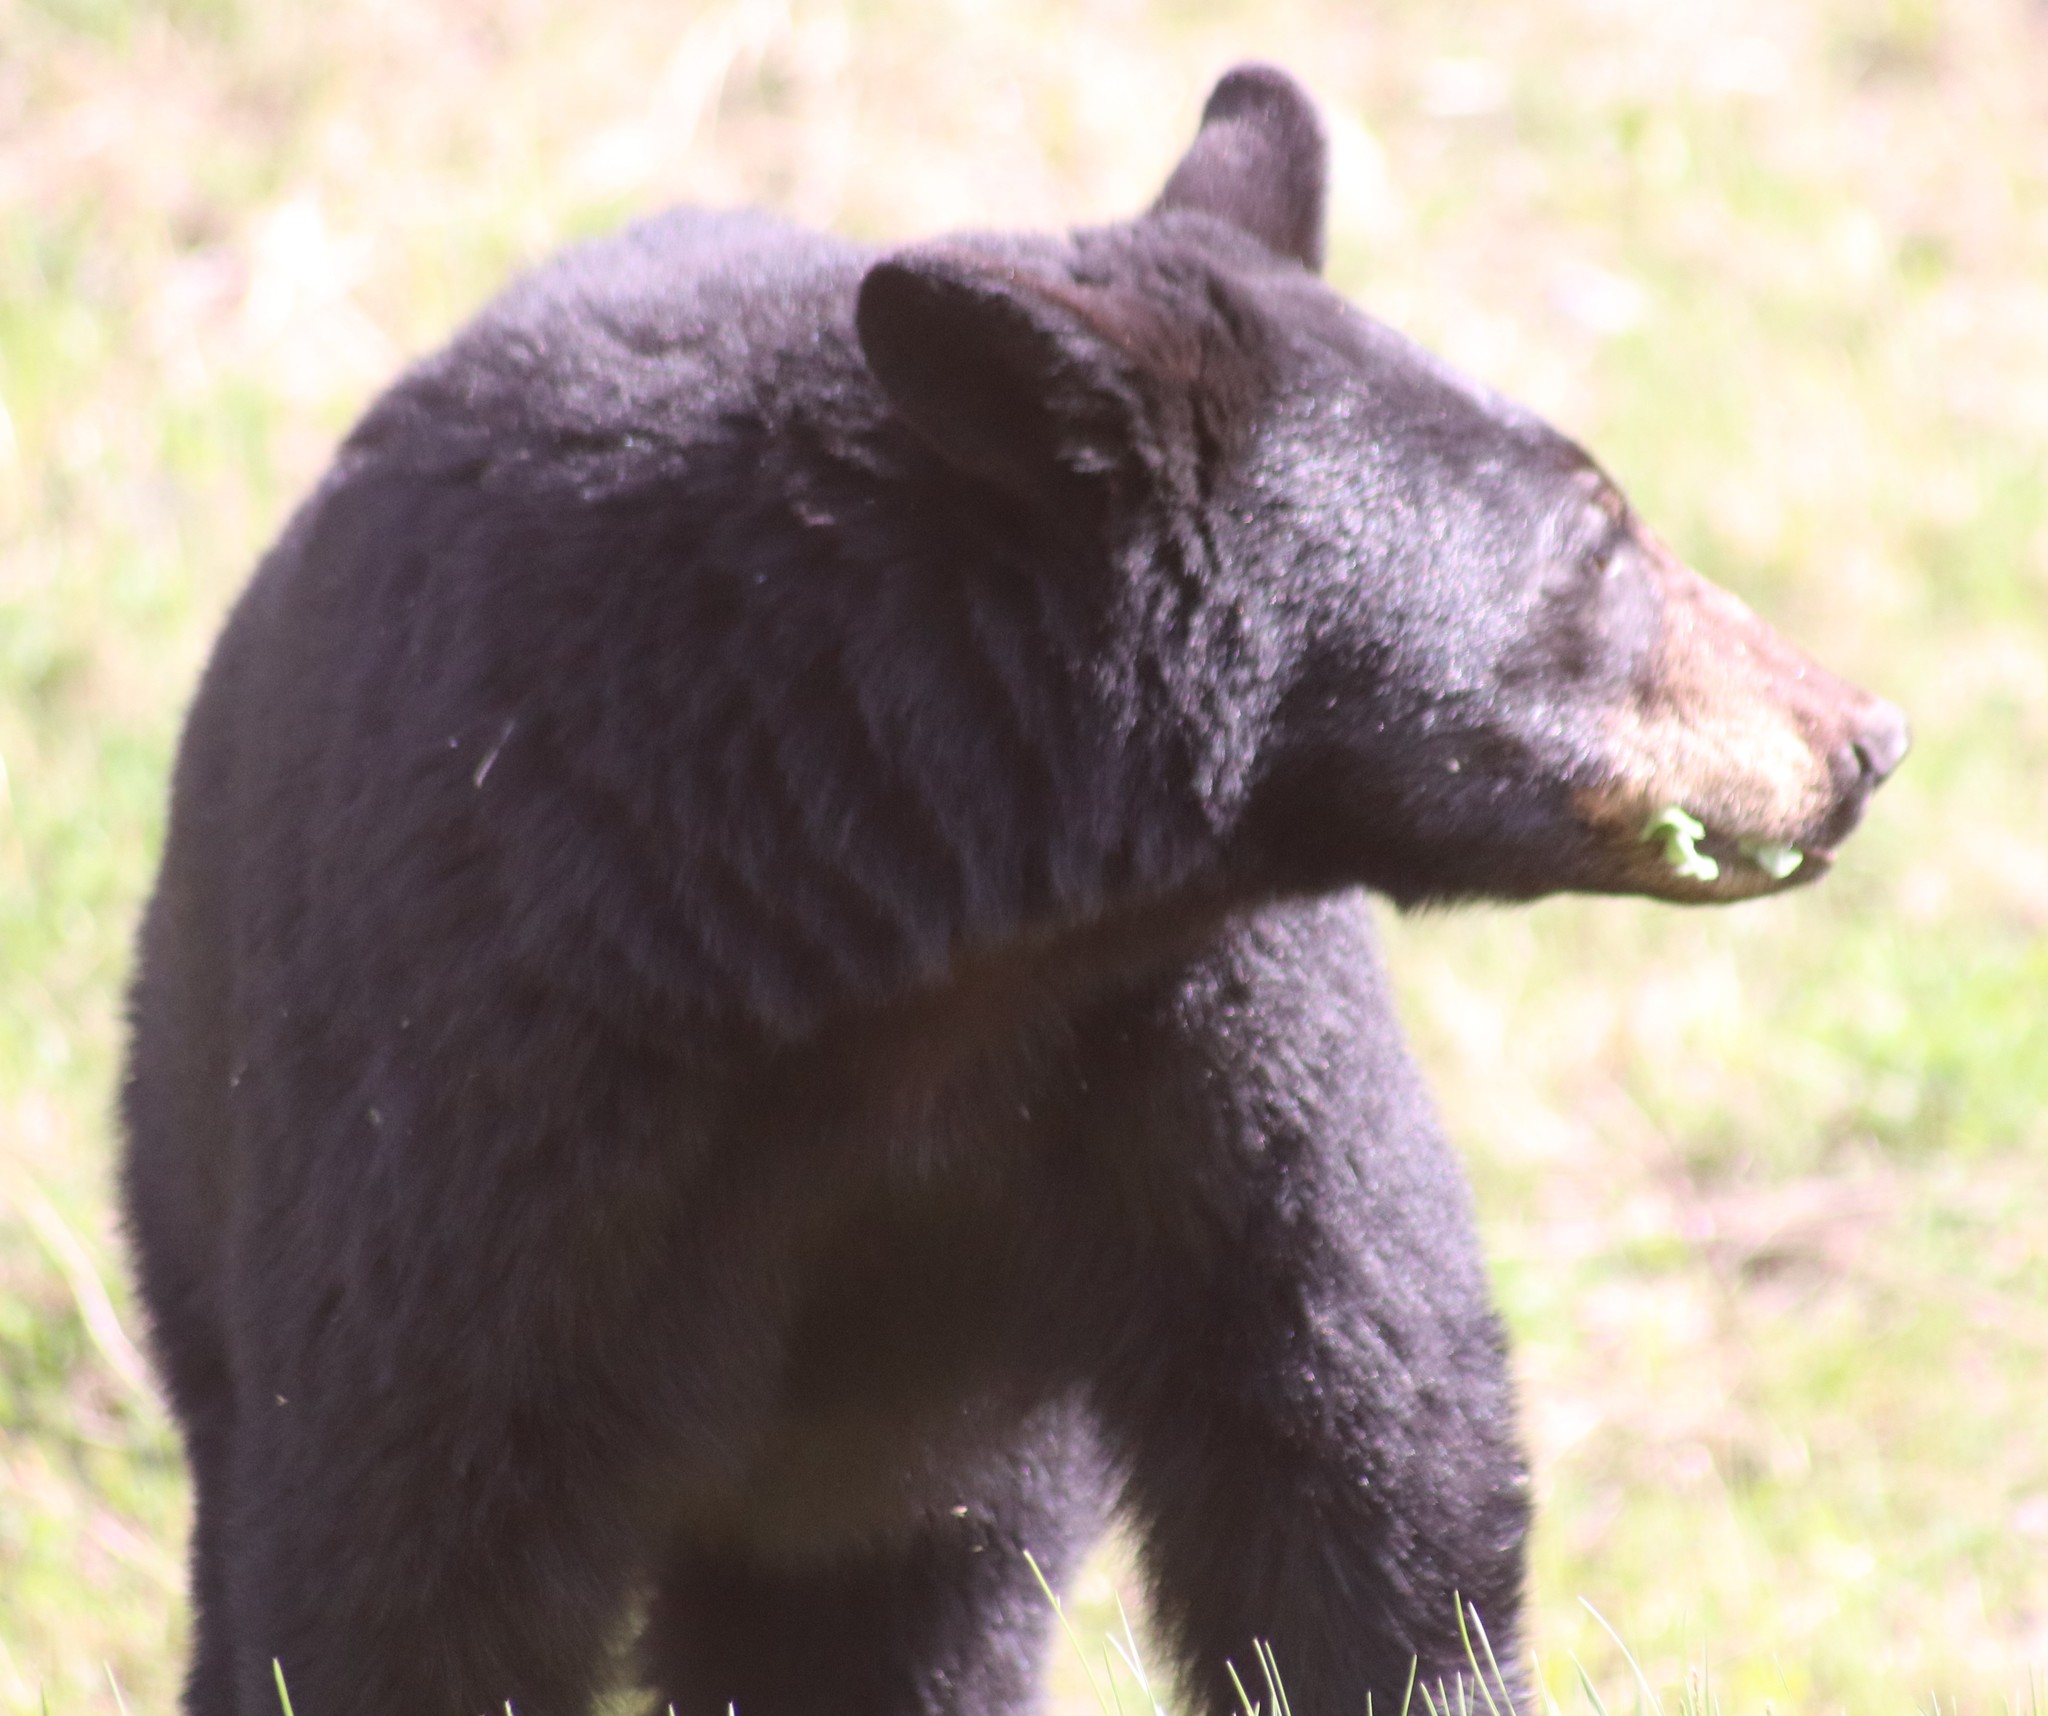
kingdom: Animalia
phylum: Chordata
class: Mammalia
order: Carnivora
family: Ursidae
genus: Ursus
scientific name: Ursus americanus
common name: American black bear
